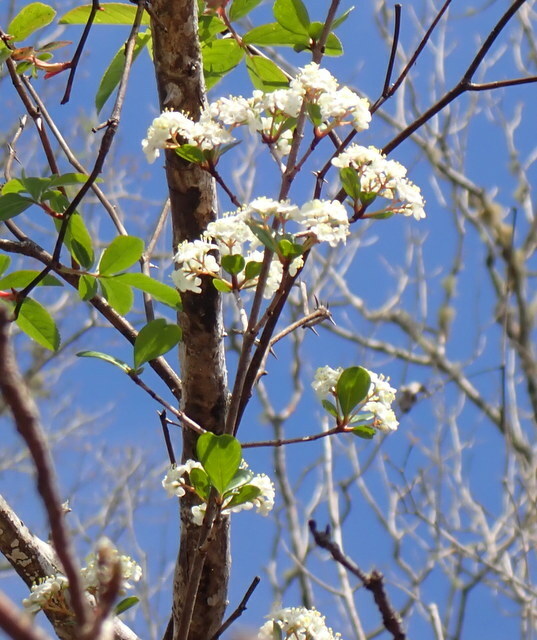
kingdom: Plantae
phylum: Tracheophyta
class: Magnoliopsida
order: Dipsacales
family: Viburnaceae
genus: Viburnum
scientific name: Viburnum obovatum
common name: Walter's viburnum
